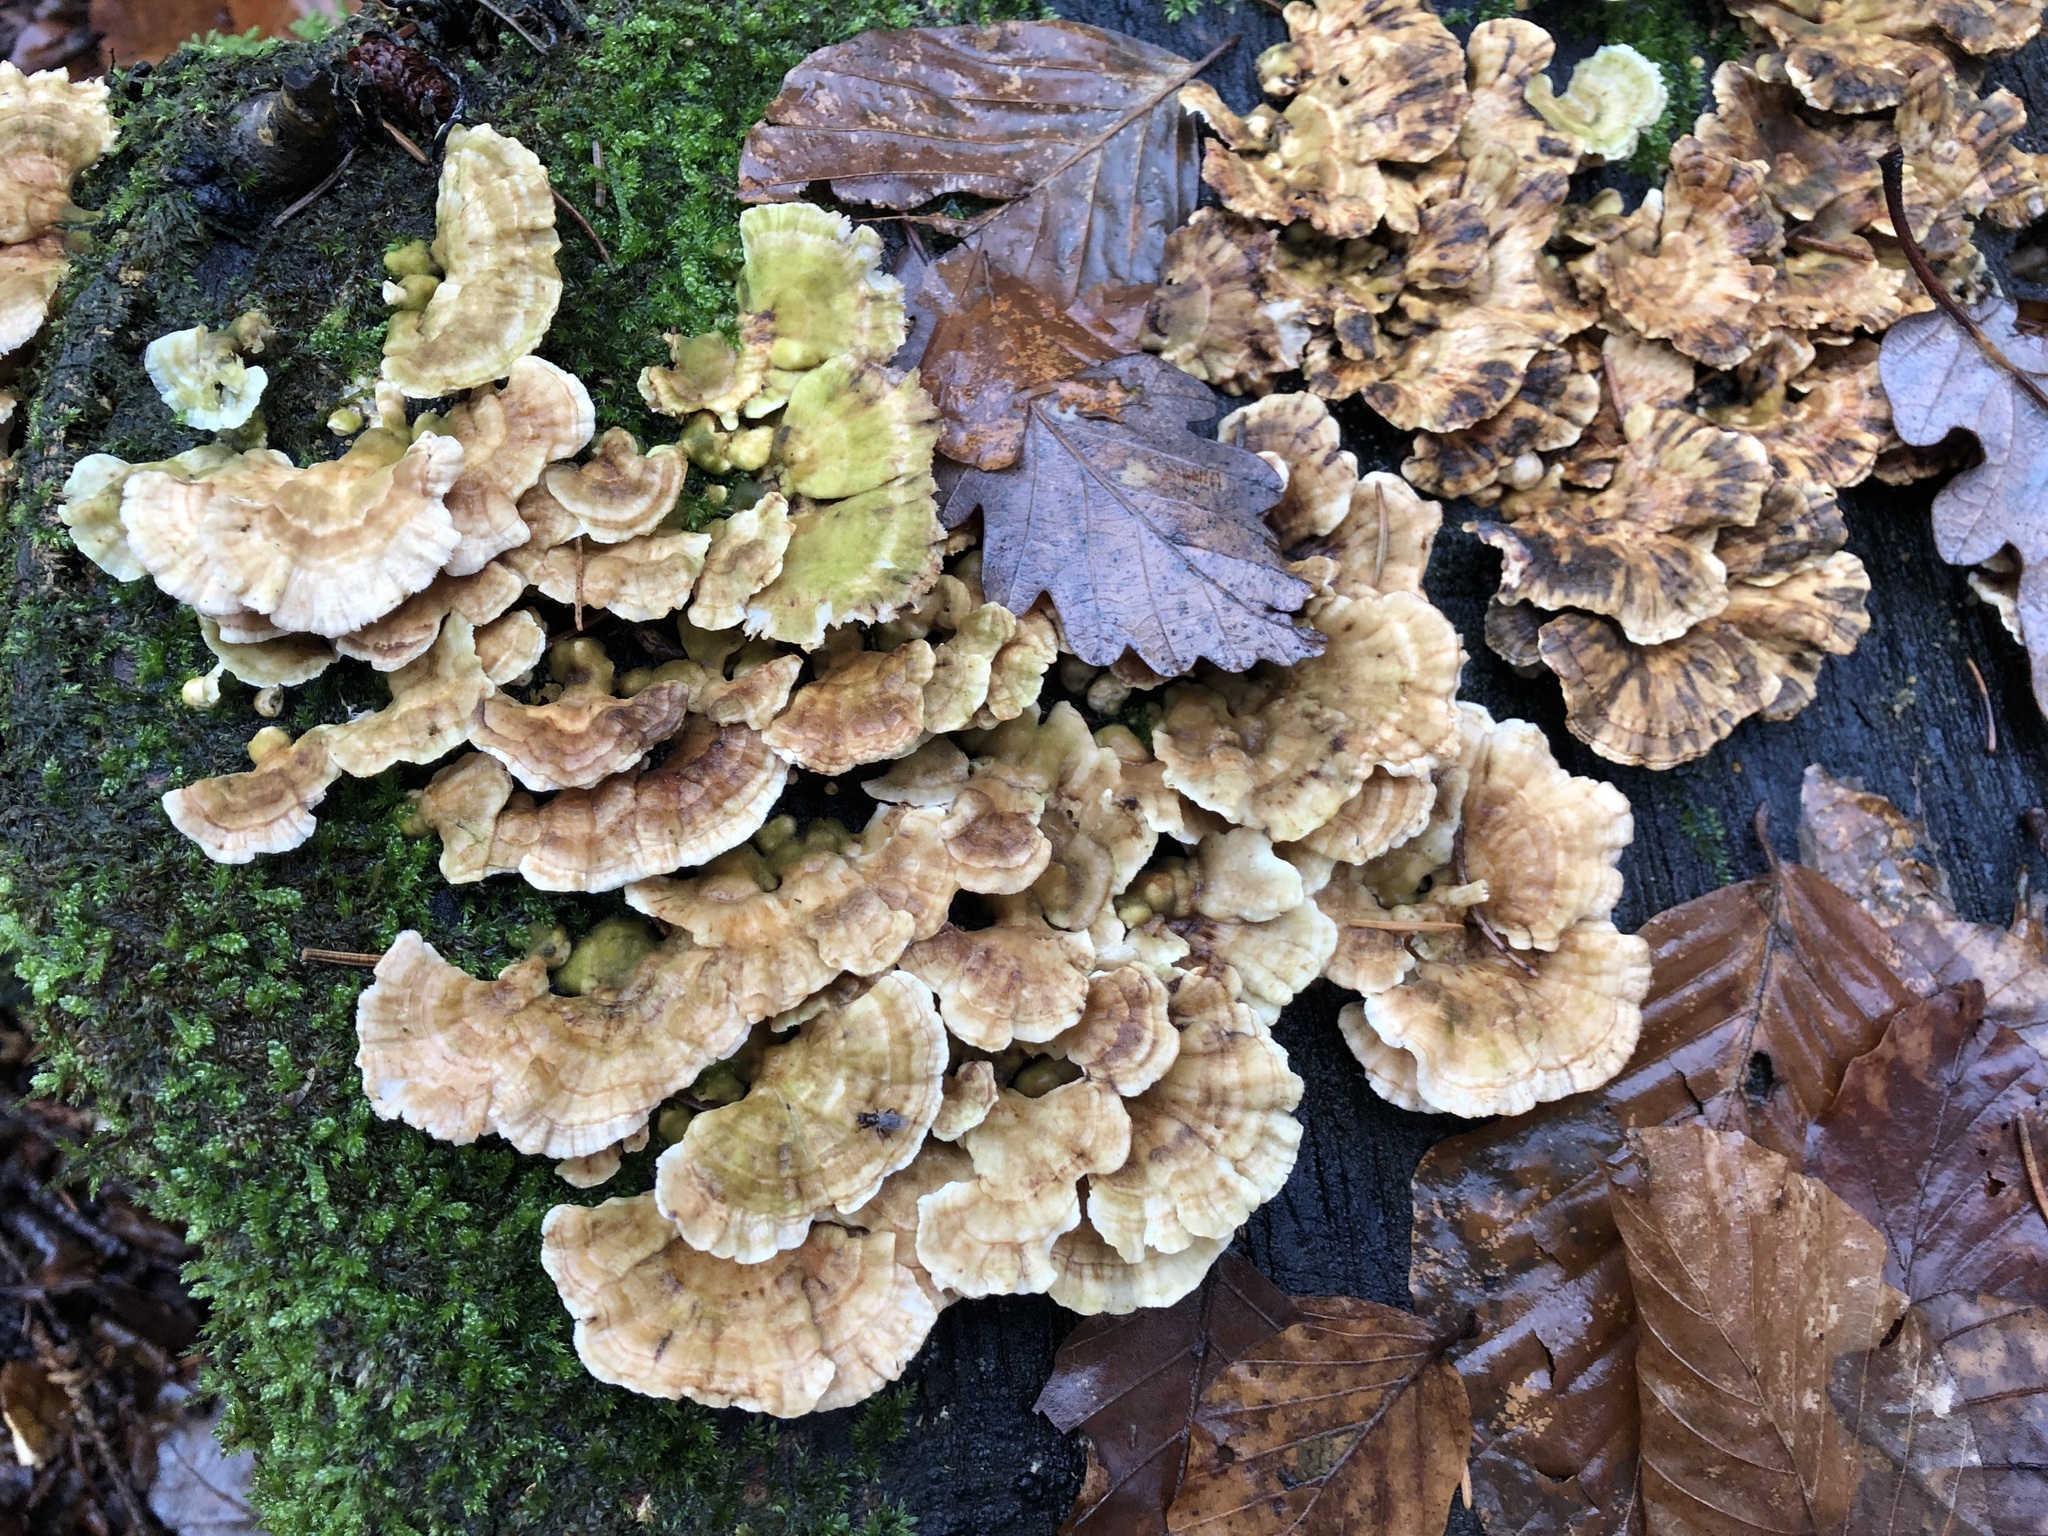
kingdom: Fungi
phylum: Basidiomycota
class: Agaricomycetes
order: Polyporales
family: Polyporaceae
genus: Trametes
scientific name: Trametes ochracea
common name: Ochre bracket
